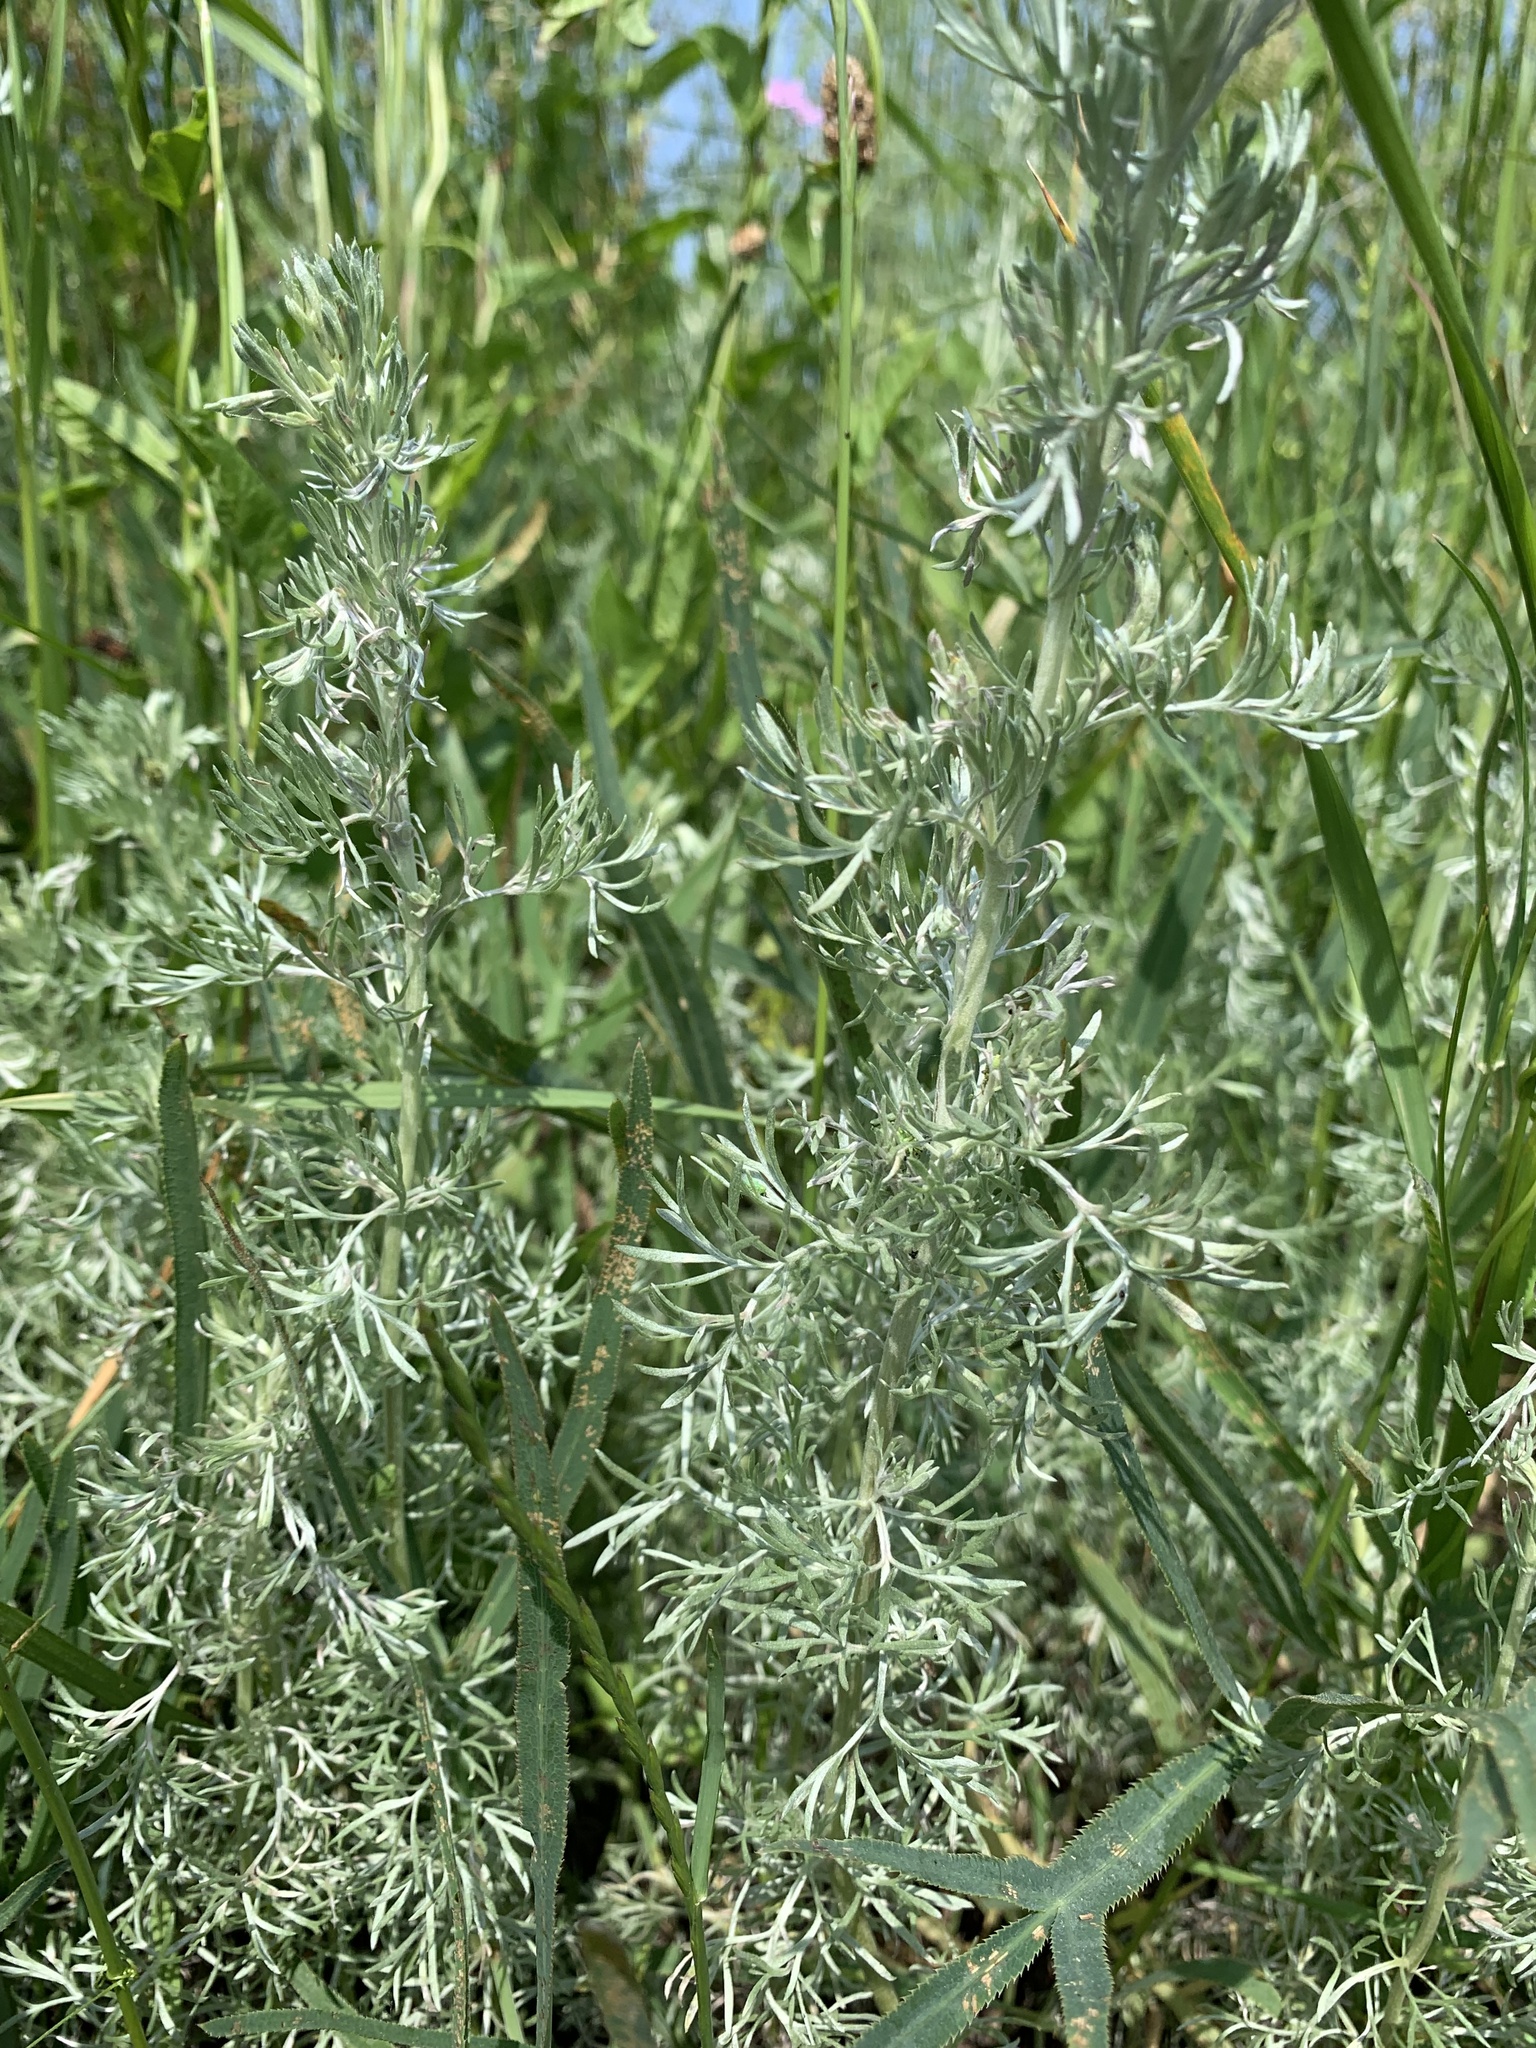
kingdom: Plantae
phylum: Tracheophyta
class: Magnoliopsida
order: Asterales
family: Asteraceae
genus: Artemisia
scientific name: Artemisia austriaca
